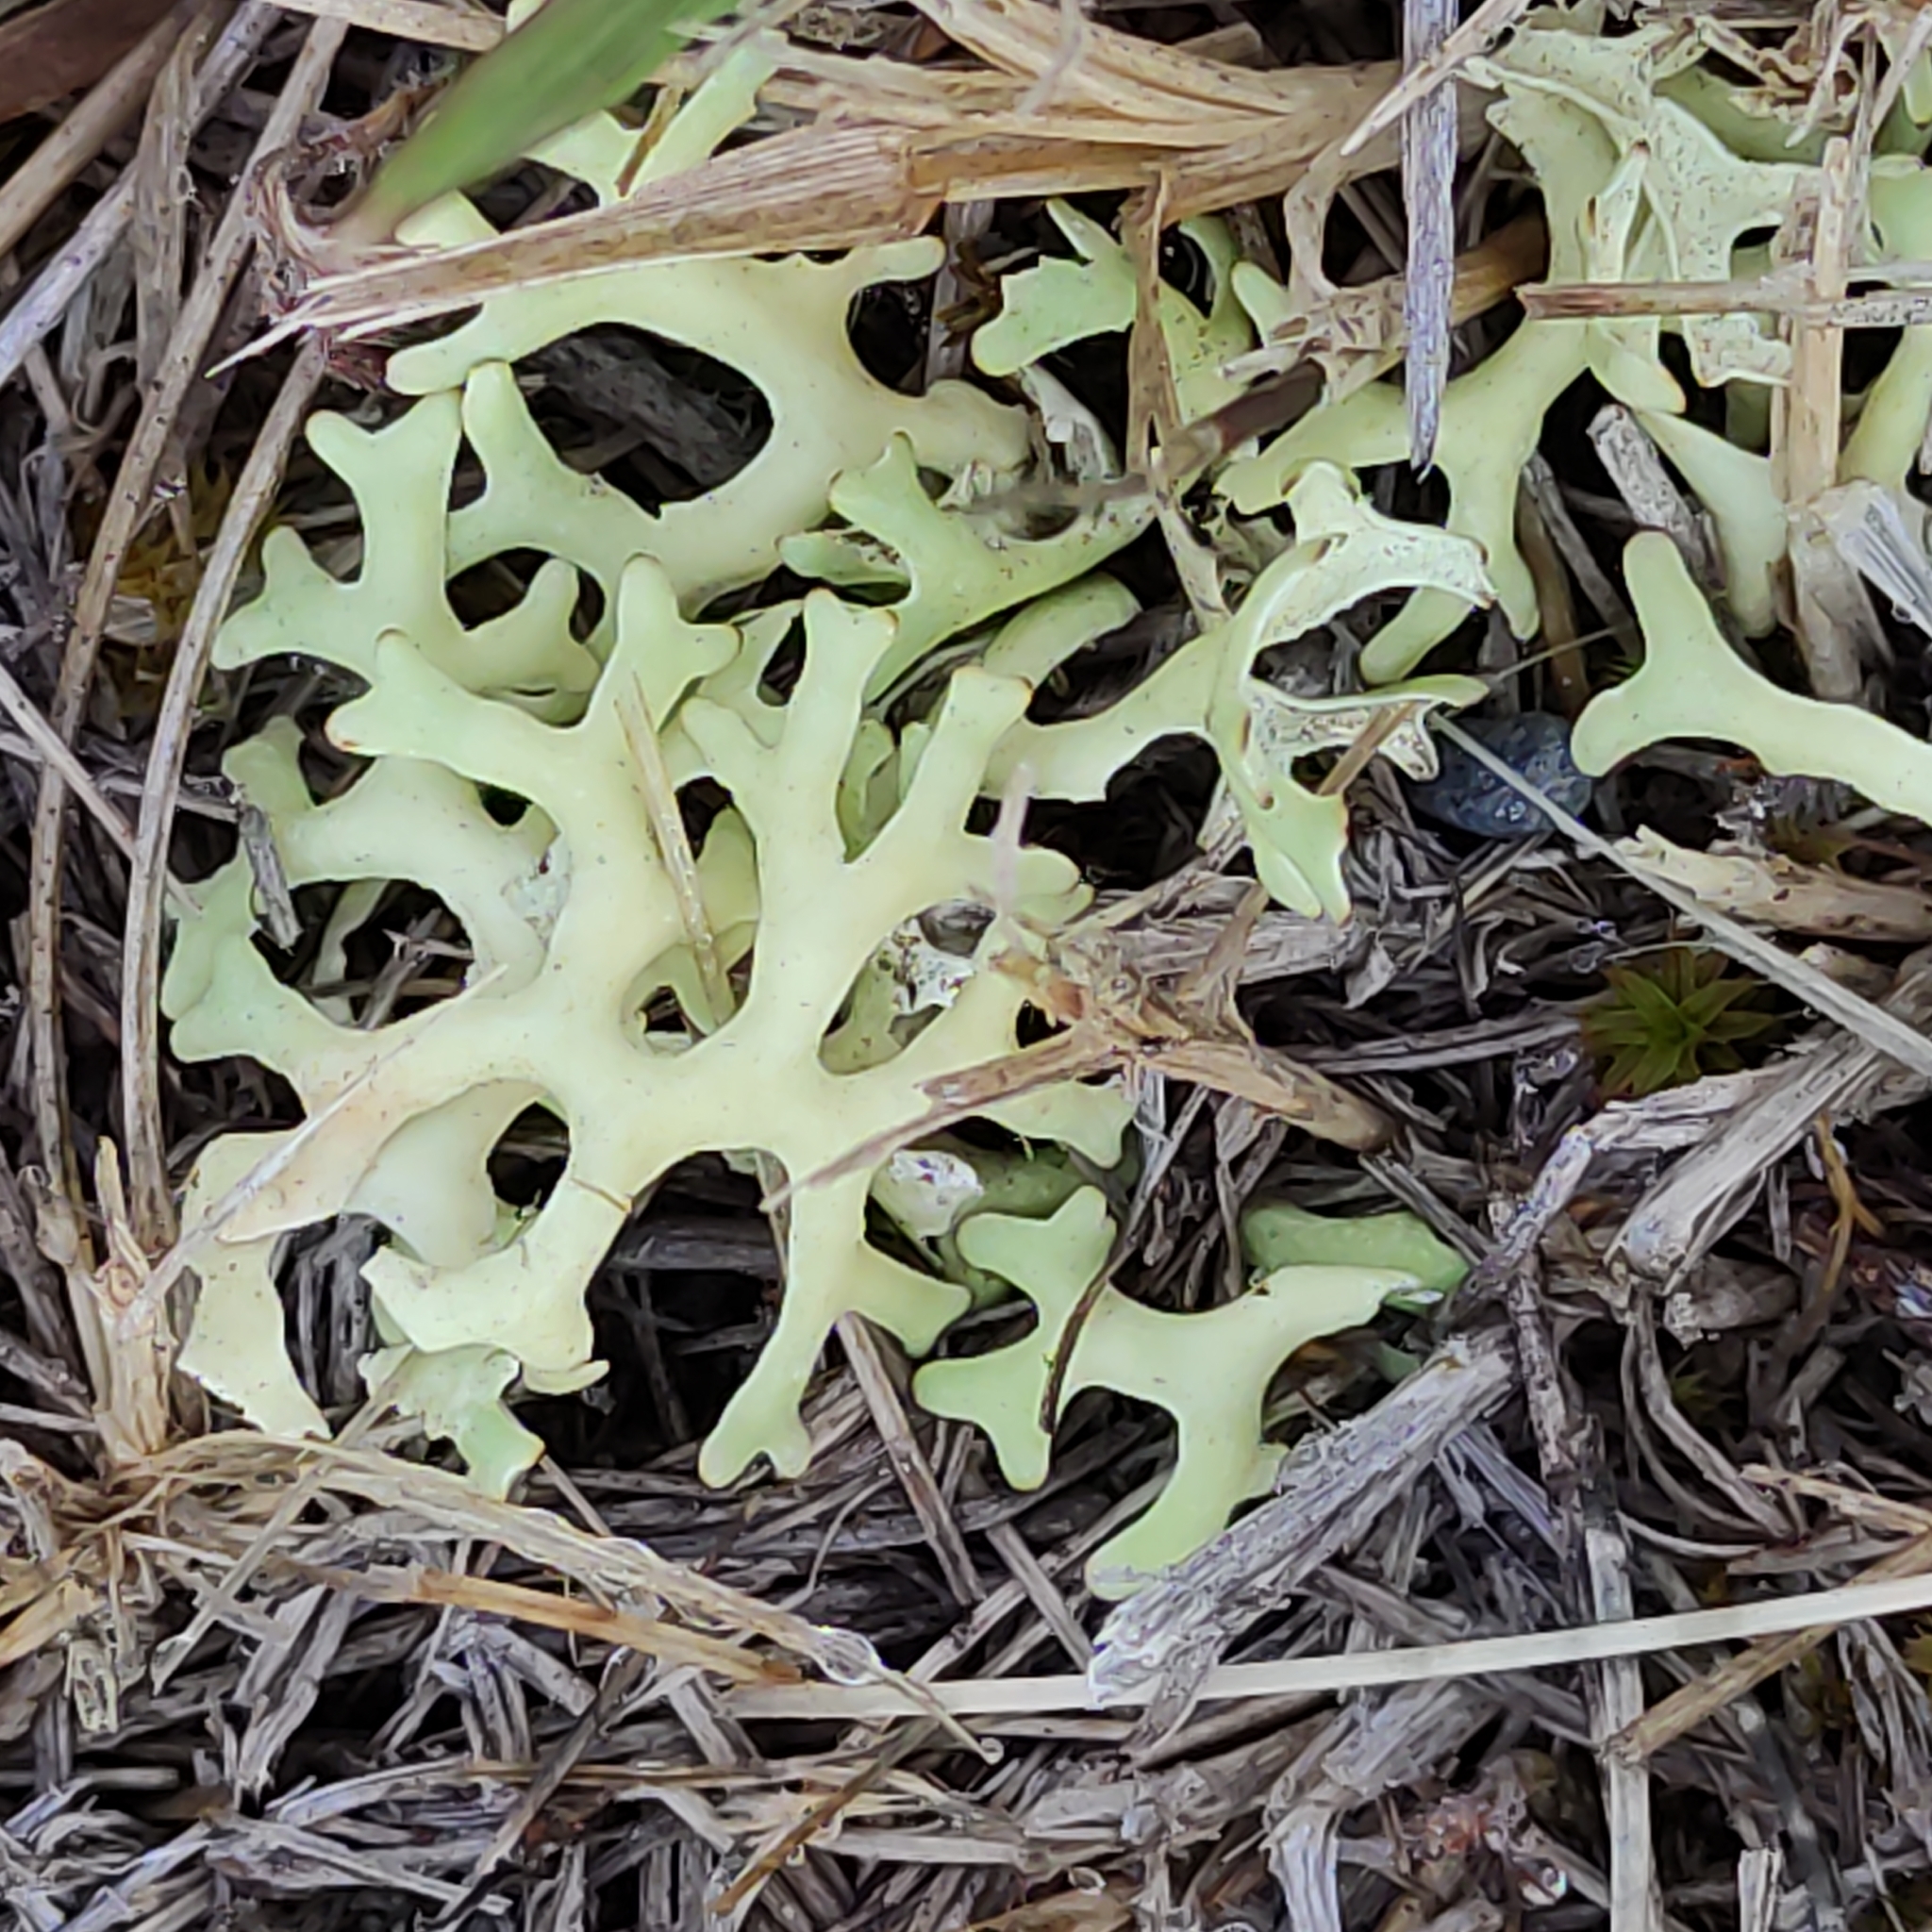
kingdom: Fungi
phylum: Ascomycota
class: Lecanoromycetes
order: Lecanorales
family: Parmeliaceae
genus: Xanthoparmelia
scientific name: Xanthoparmelia semiviridis
